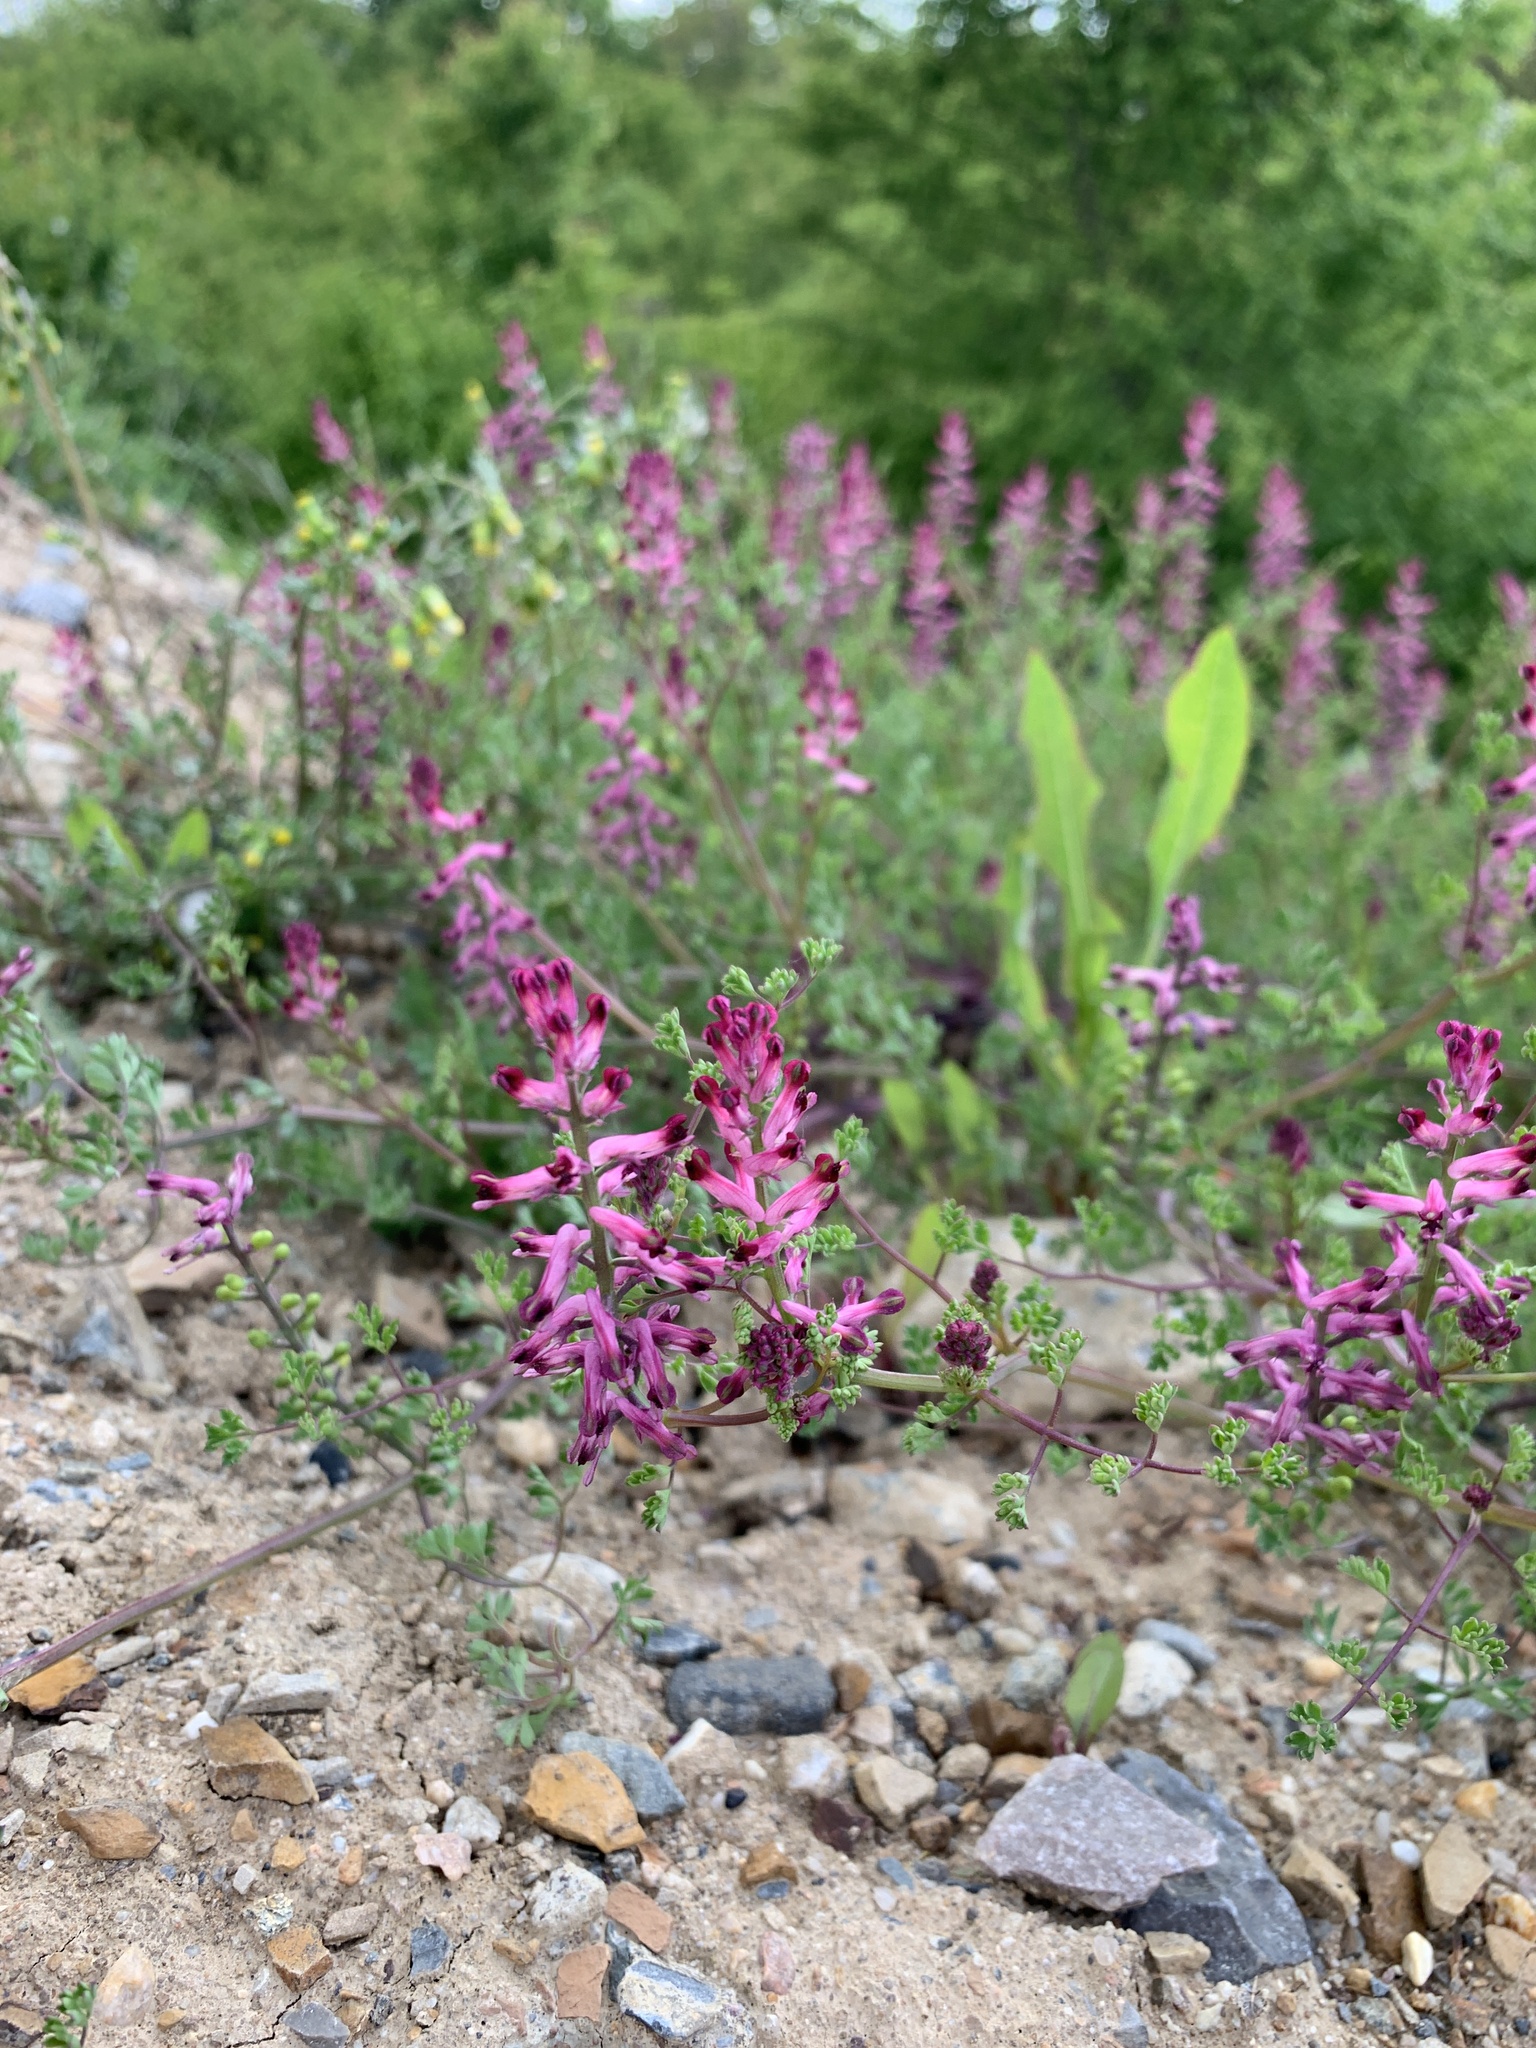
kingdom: Plantae
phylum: Tracheophyta
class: Magnoliopsida
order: Ranunculales
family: Papaveraceae
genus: Fumaria
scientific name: Fumaria officinalis
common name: Common fumitory
